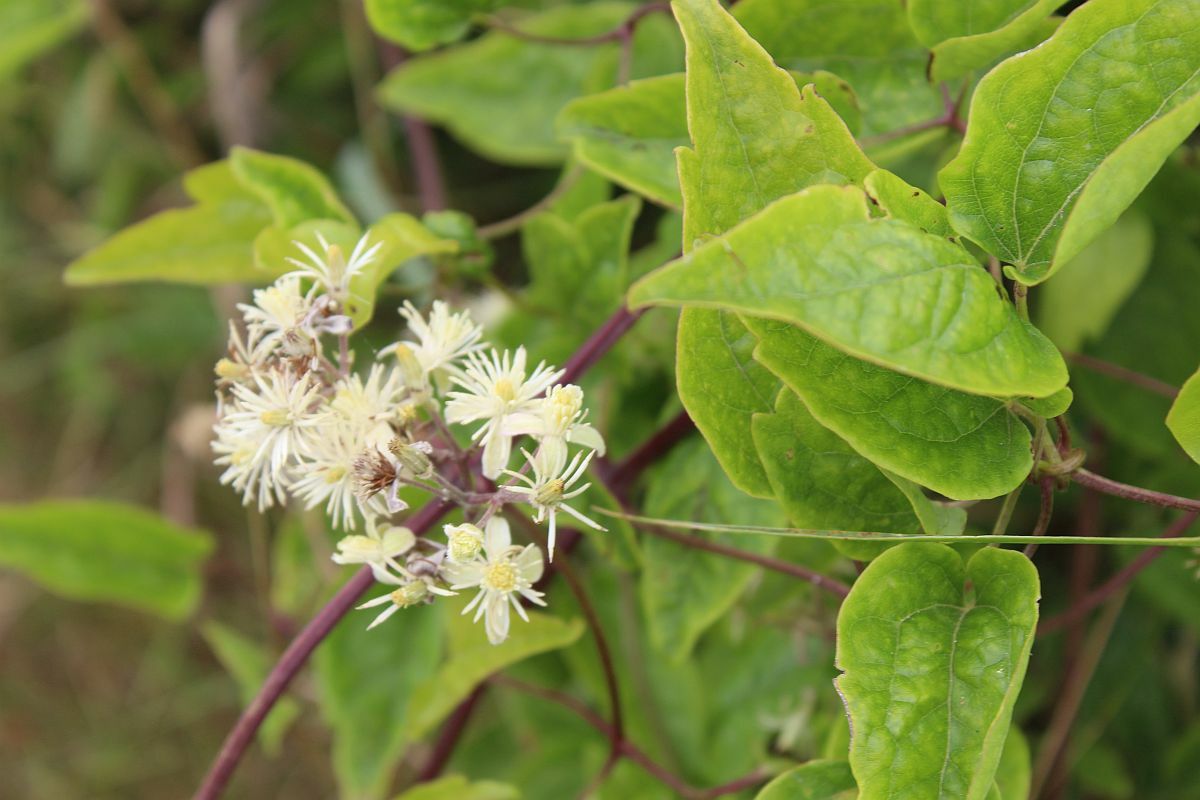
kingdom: Plantae
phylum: Tracheophyta
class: Magnoliopsida
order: Ranunculales
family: Ranunculaceae
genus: Clematis
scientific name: Clematis vitalba
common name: Evergreen clematis
